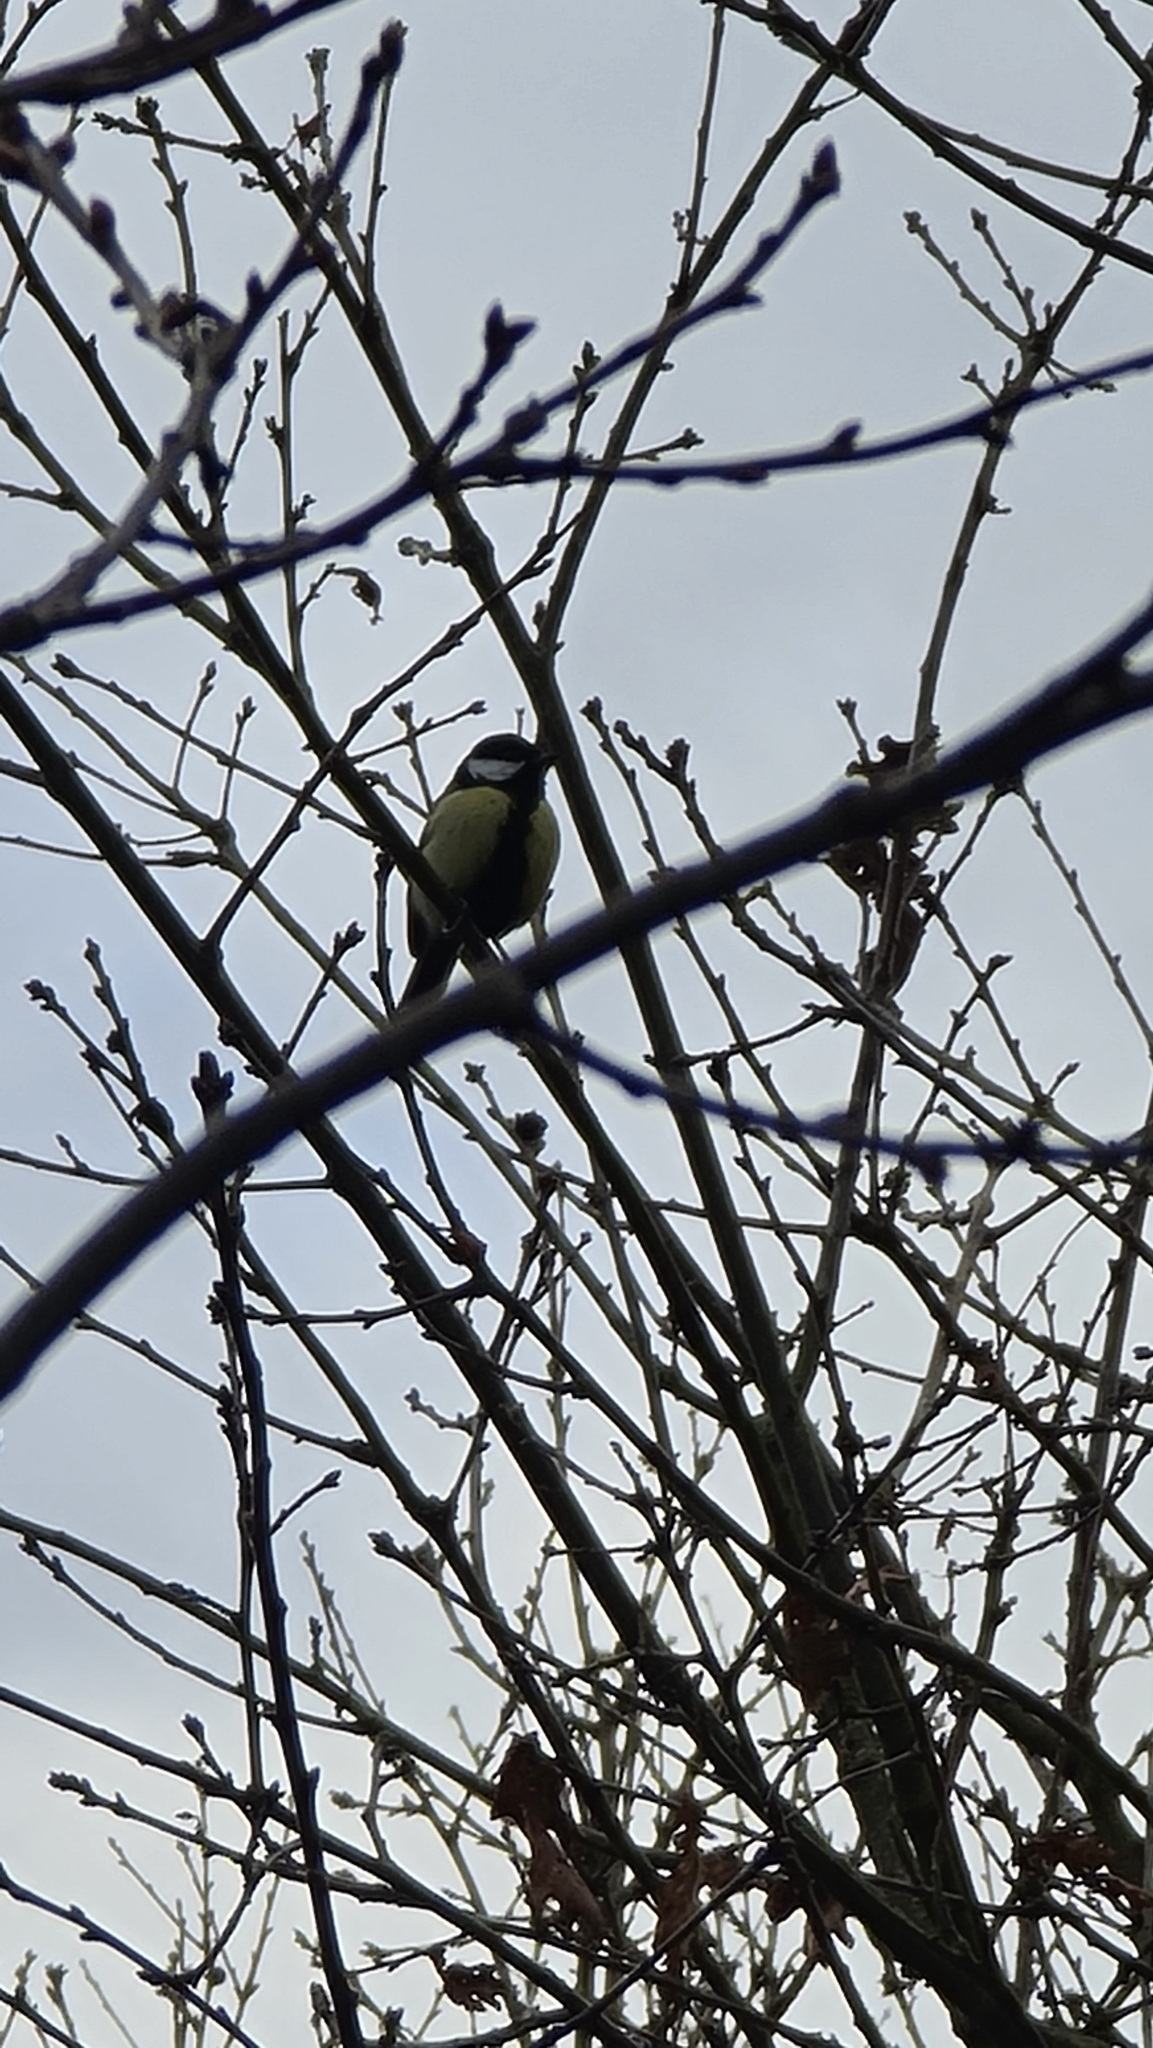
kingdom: Animalia
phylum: Chordata
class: Aves
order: Passeriformes
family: Paridae
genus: Parus
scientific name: Parus major
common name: Great tit
